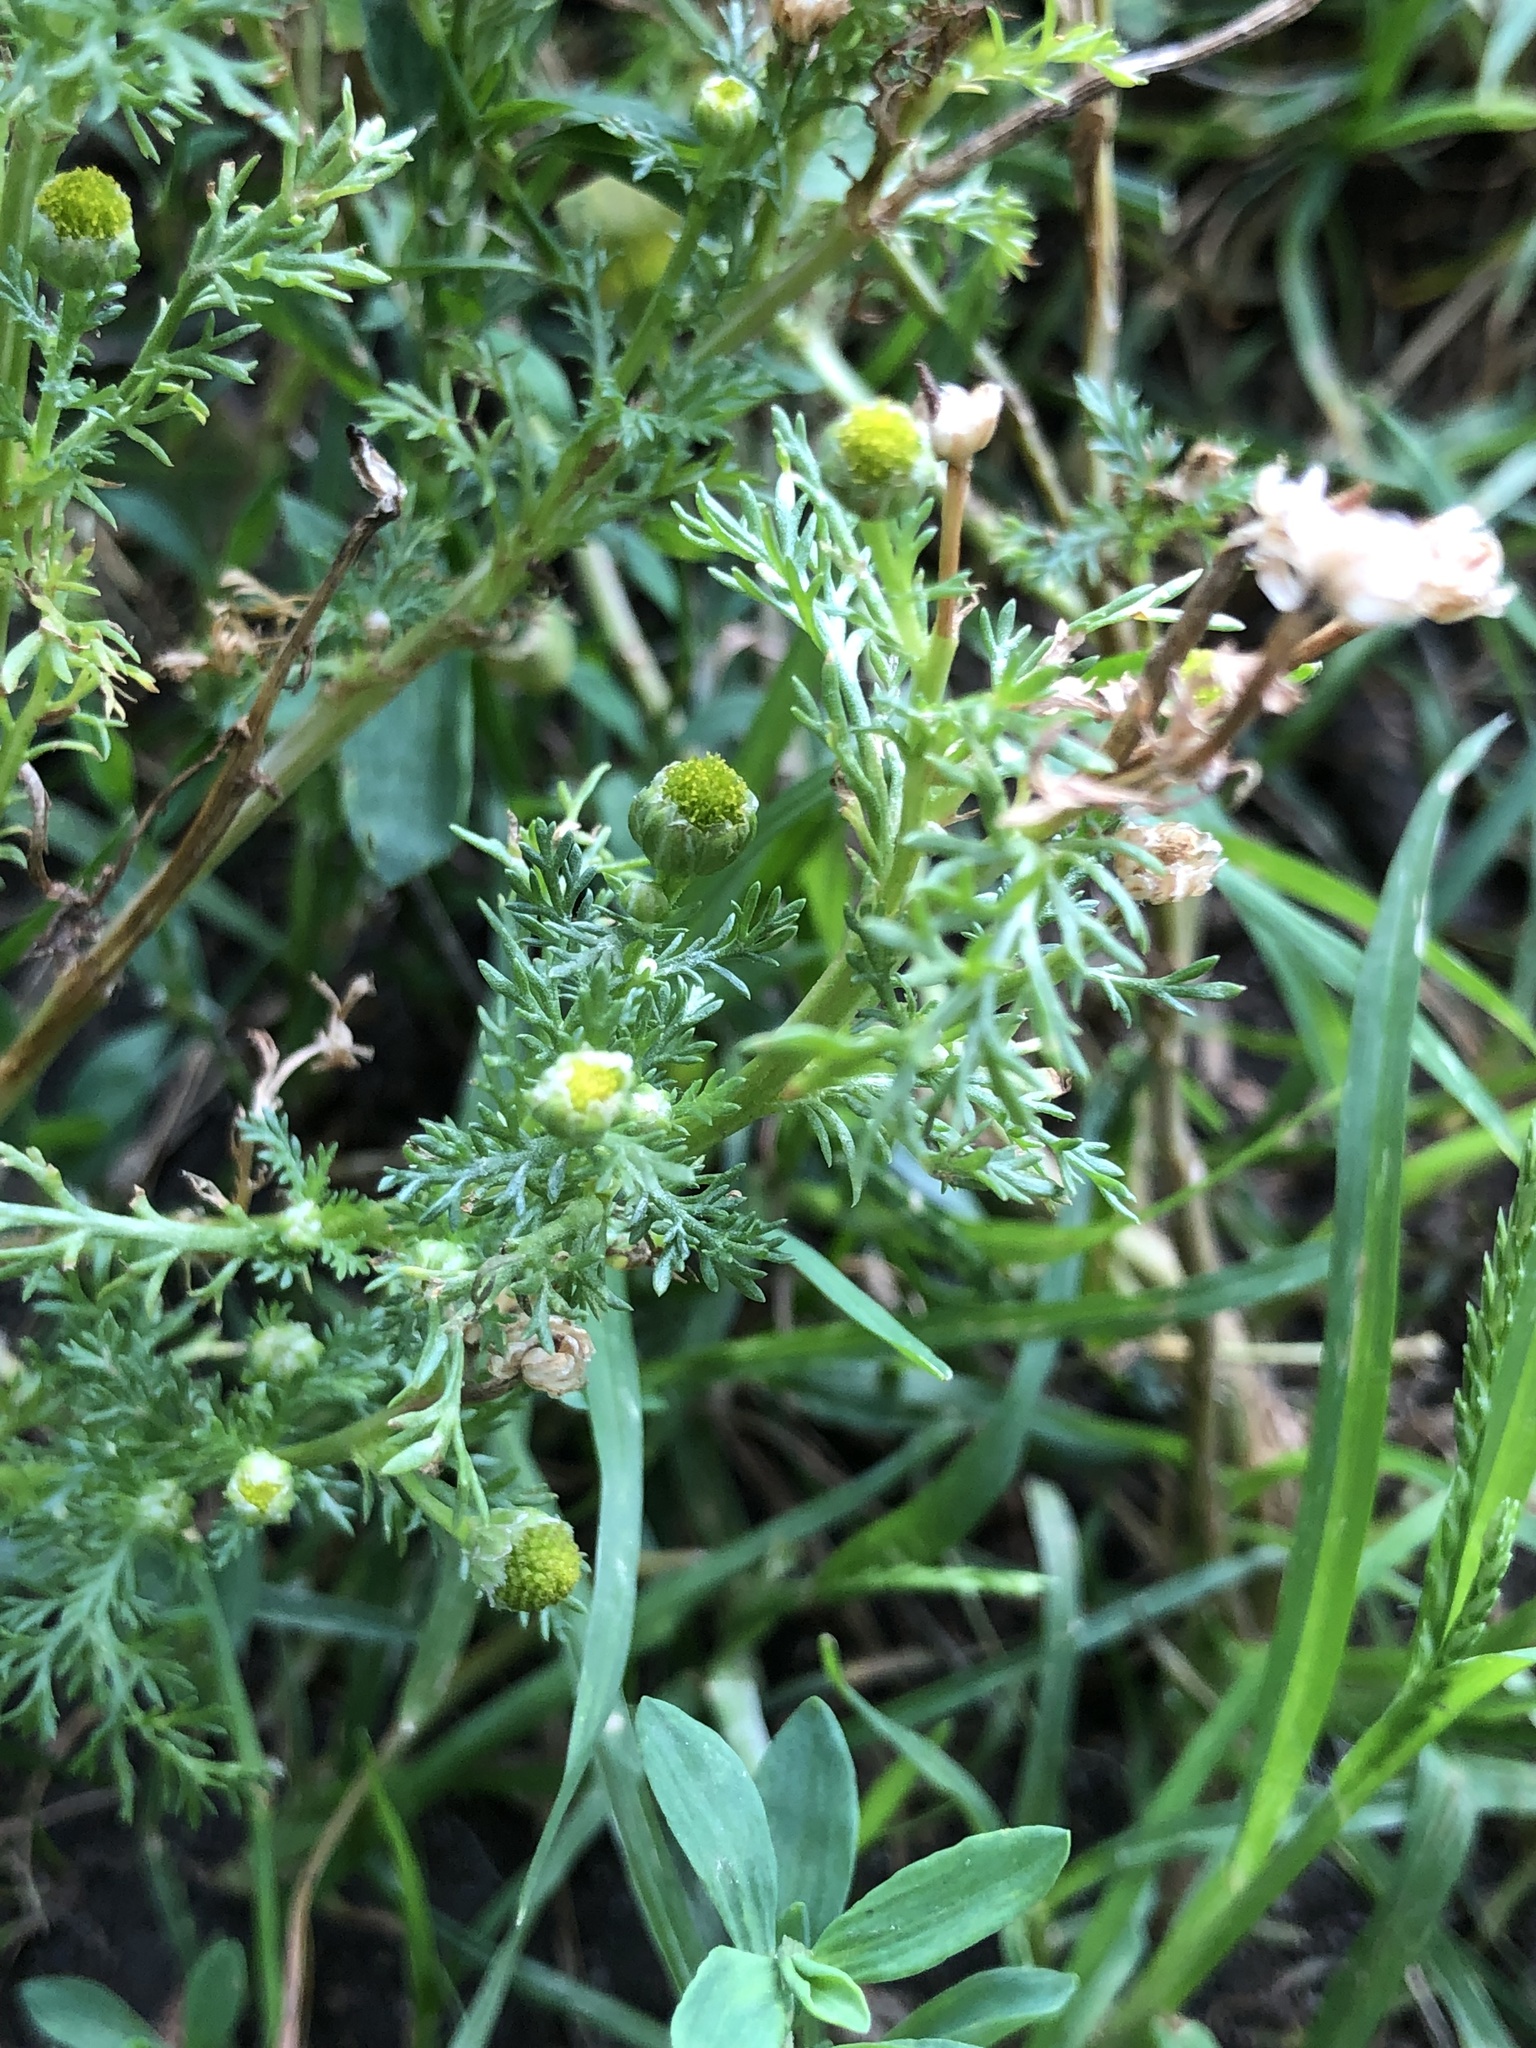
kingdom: Plantae
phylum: Tracheophyta
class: Magnoliopsida
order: Asterales
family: Asteraceae
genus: Matricaria
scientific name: Matricaria discoidea
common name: Disc mayweed
